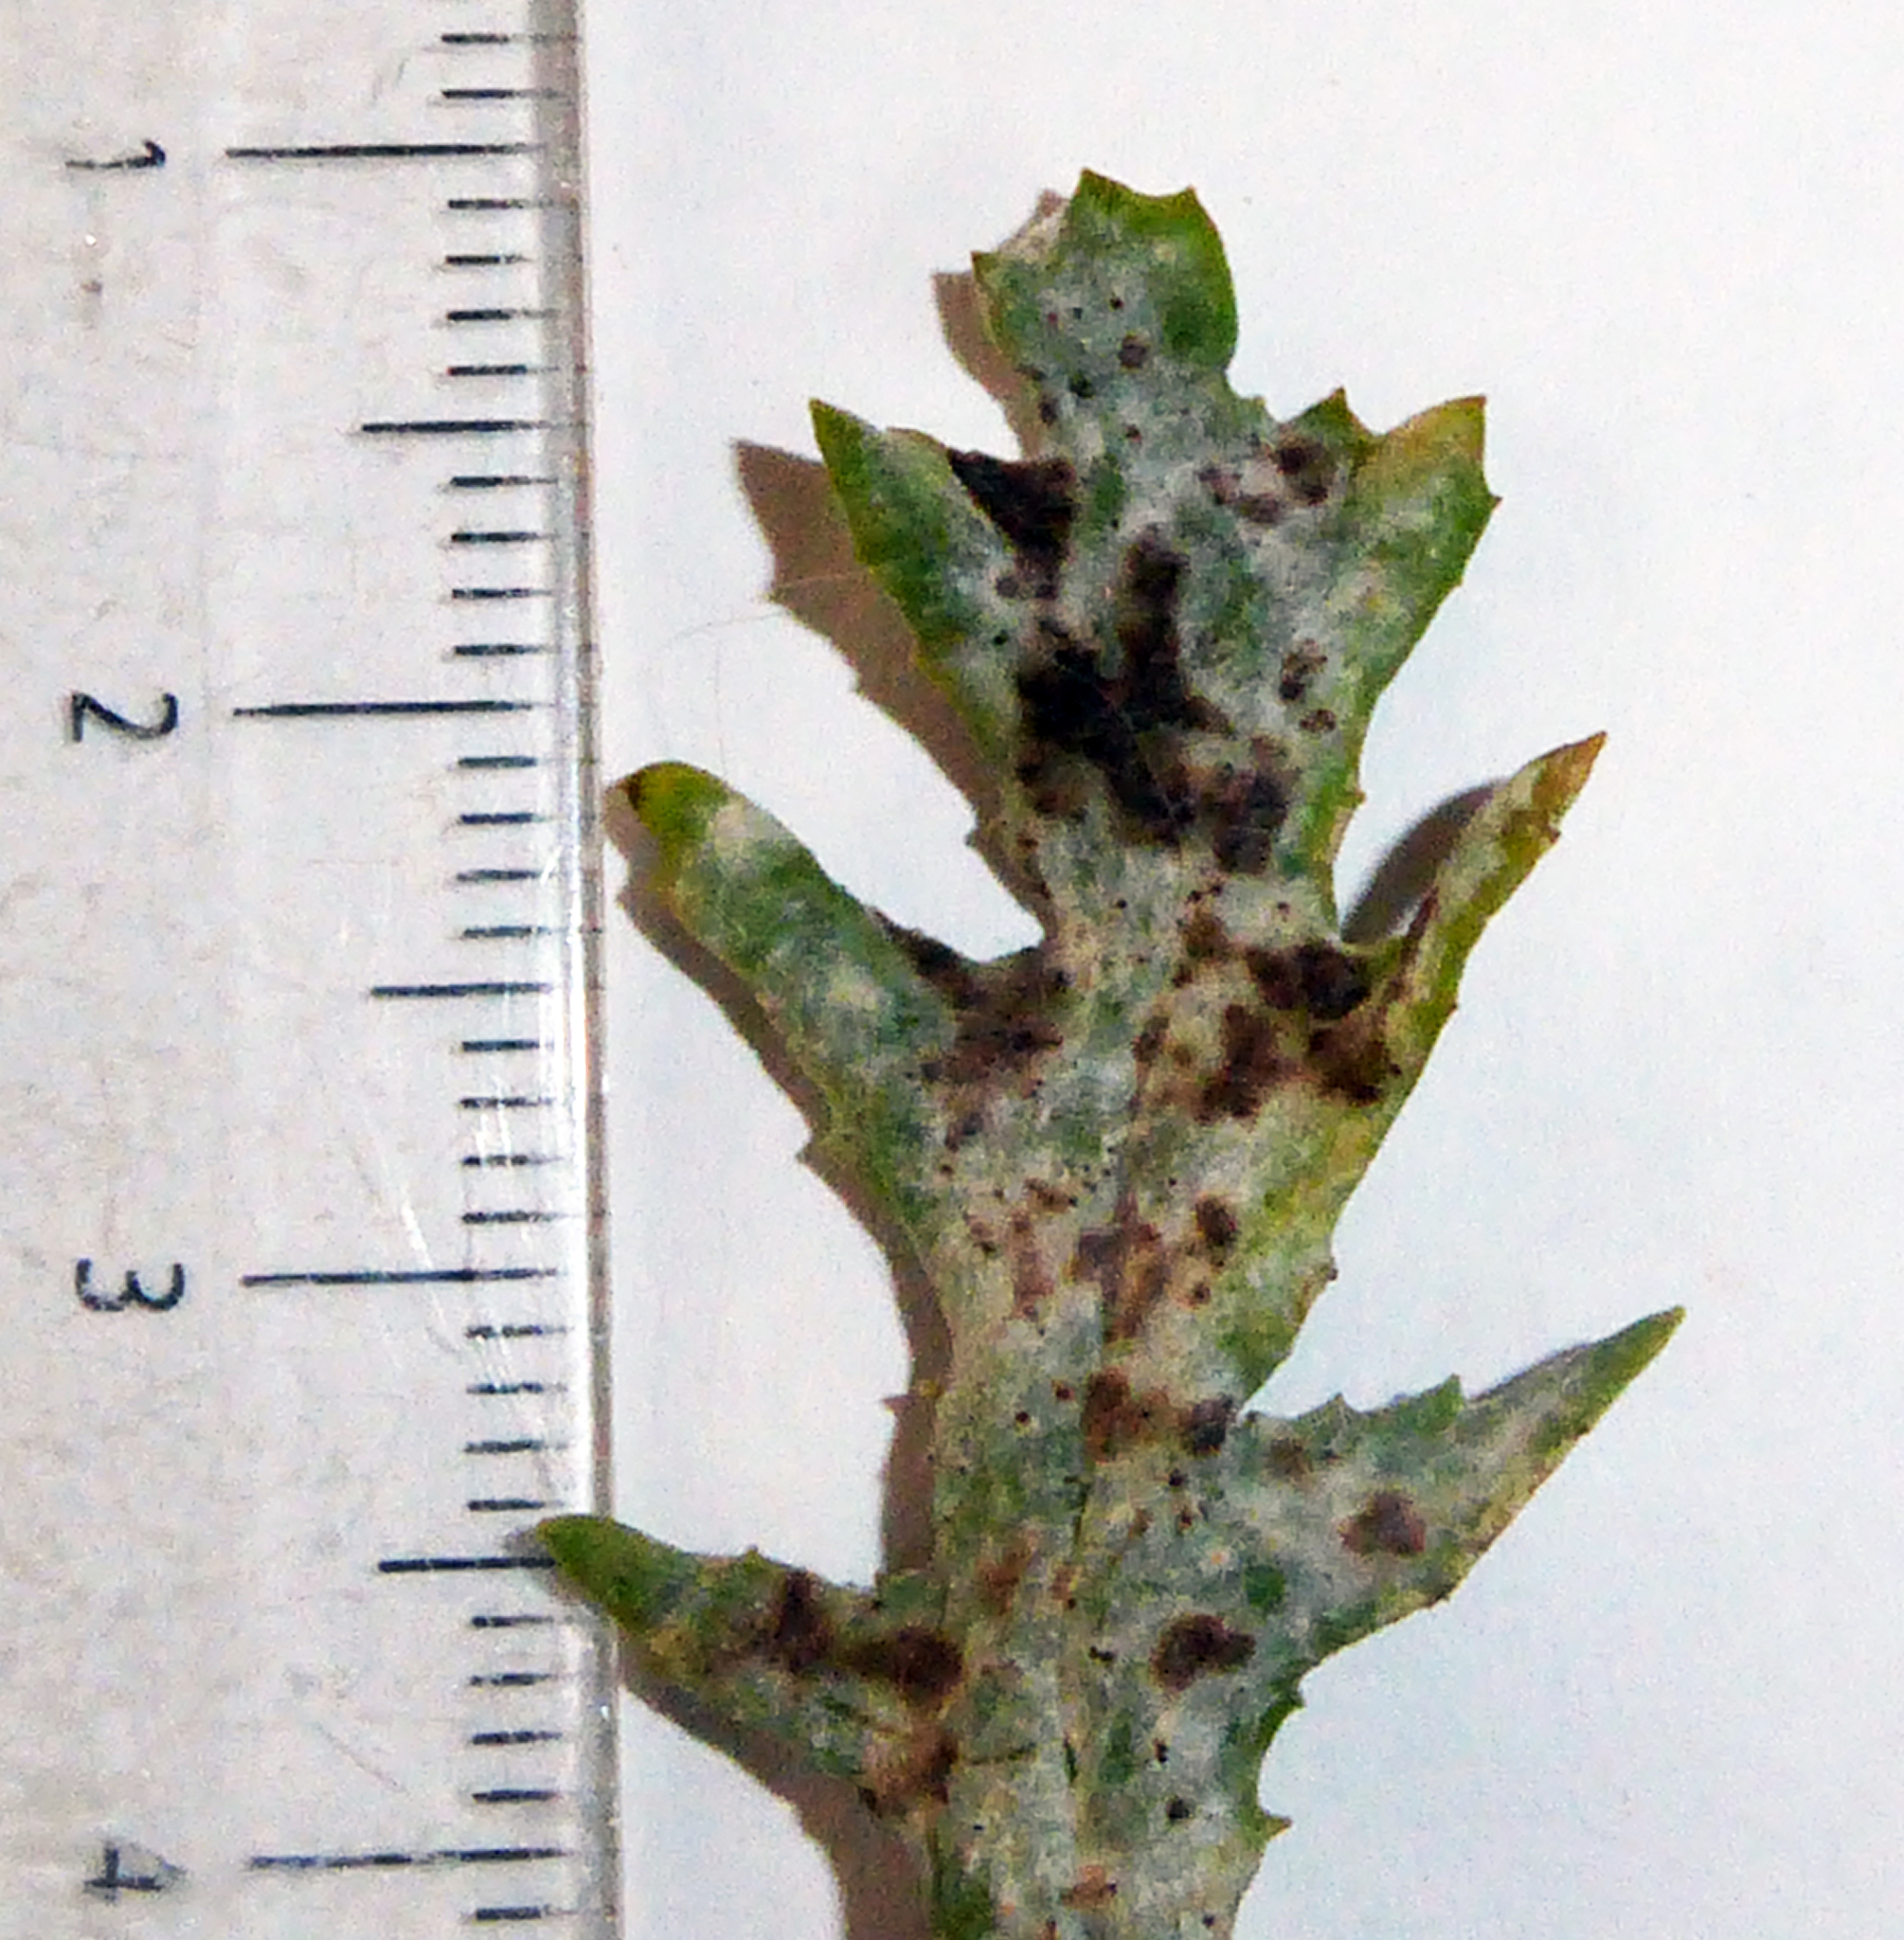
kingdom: Fungi
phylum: Ascomycota
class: Leotiomycetes
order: Helotiales
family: Erysiphaceae
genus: Neoerysiphe
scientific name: Neoerysiphe kerribeeensis
